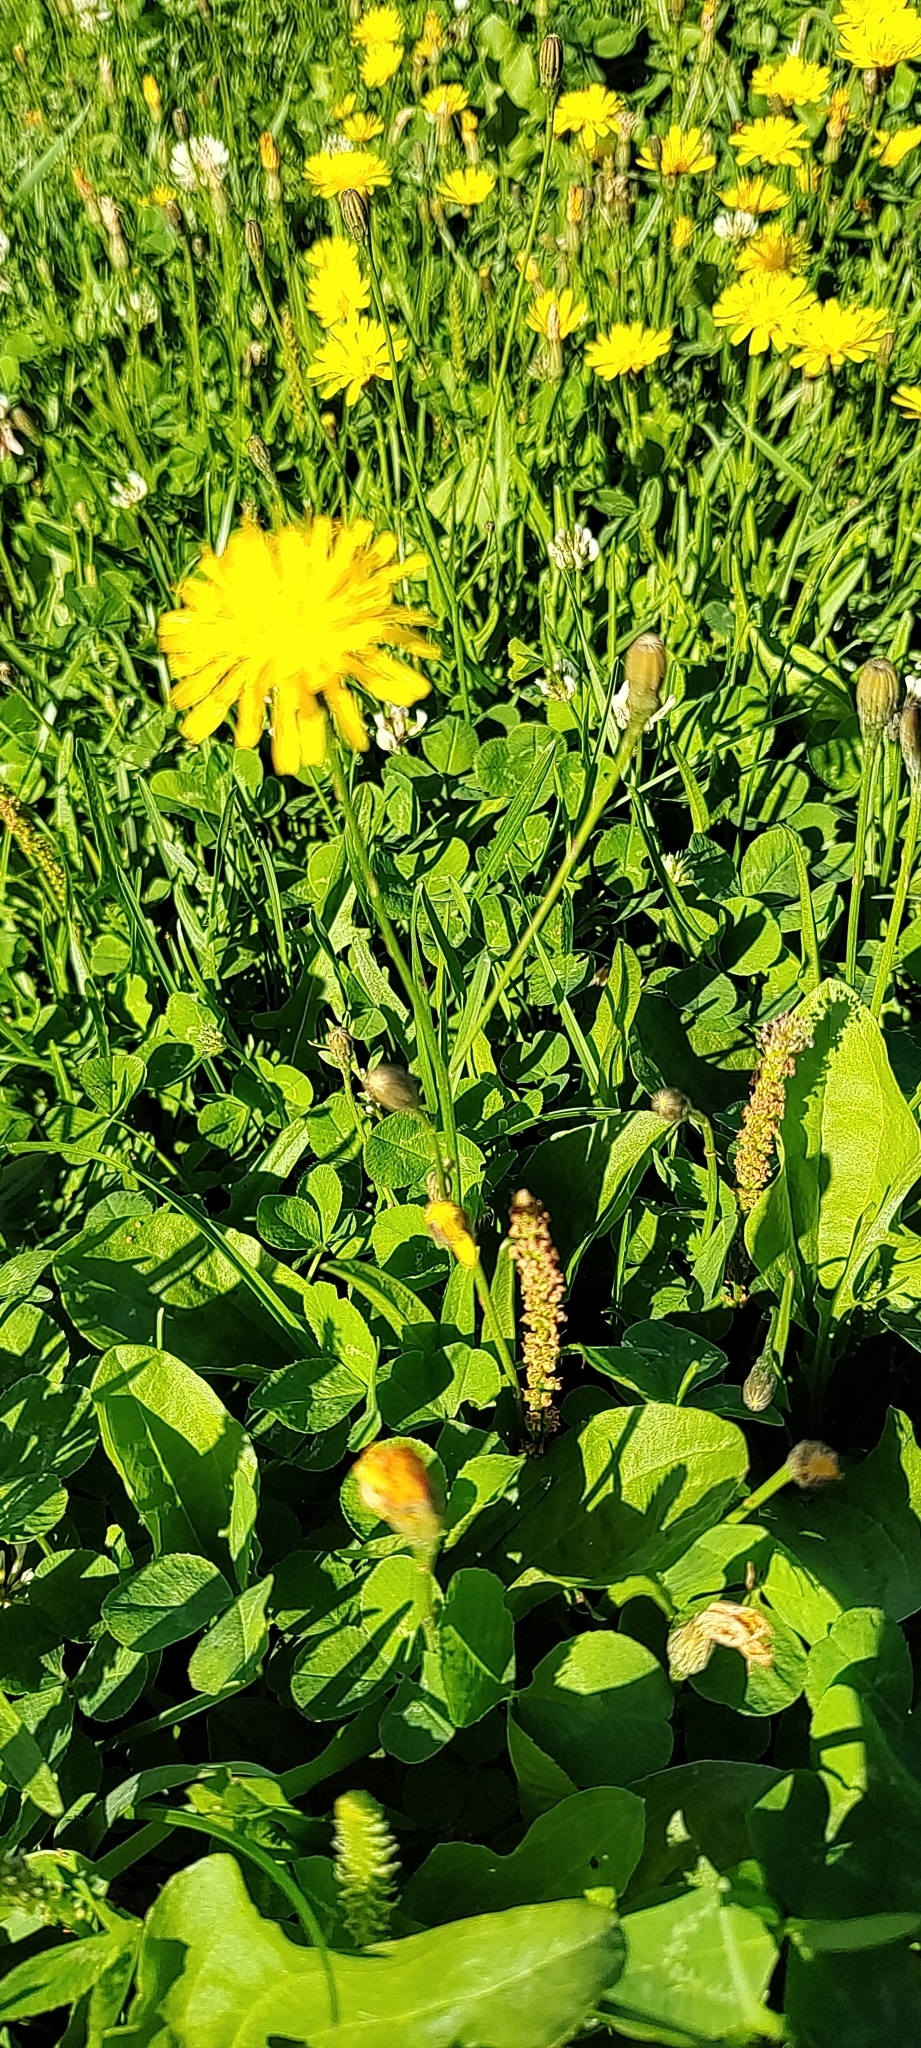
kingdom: Plantae
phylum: Tracheophyta
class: Magnoliopsida
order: Asterales
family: Asteraceae
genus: Scorzoneroides
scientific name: Scorzoneroides autumnalis
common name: Autumn hawkbit
